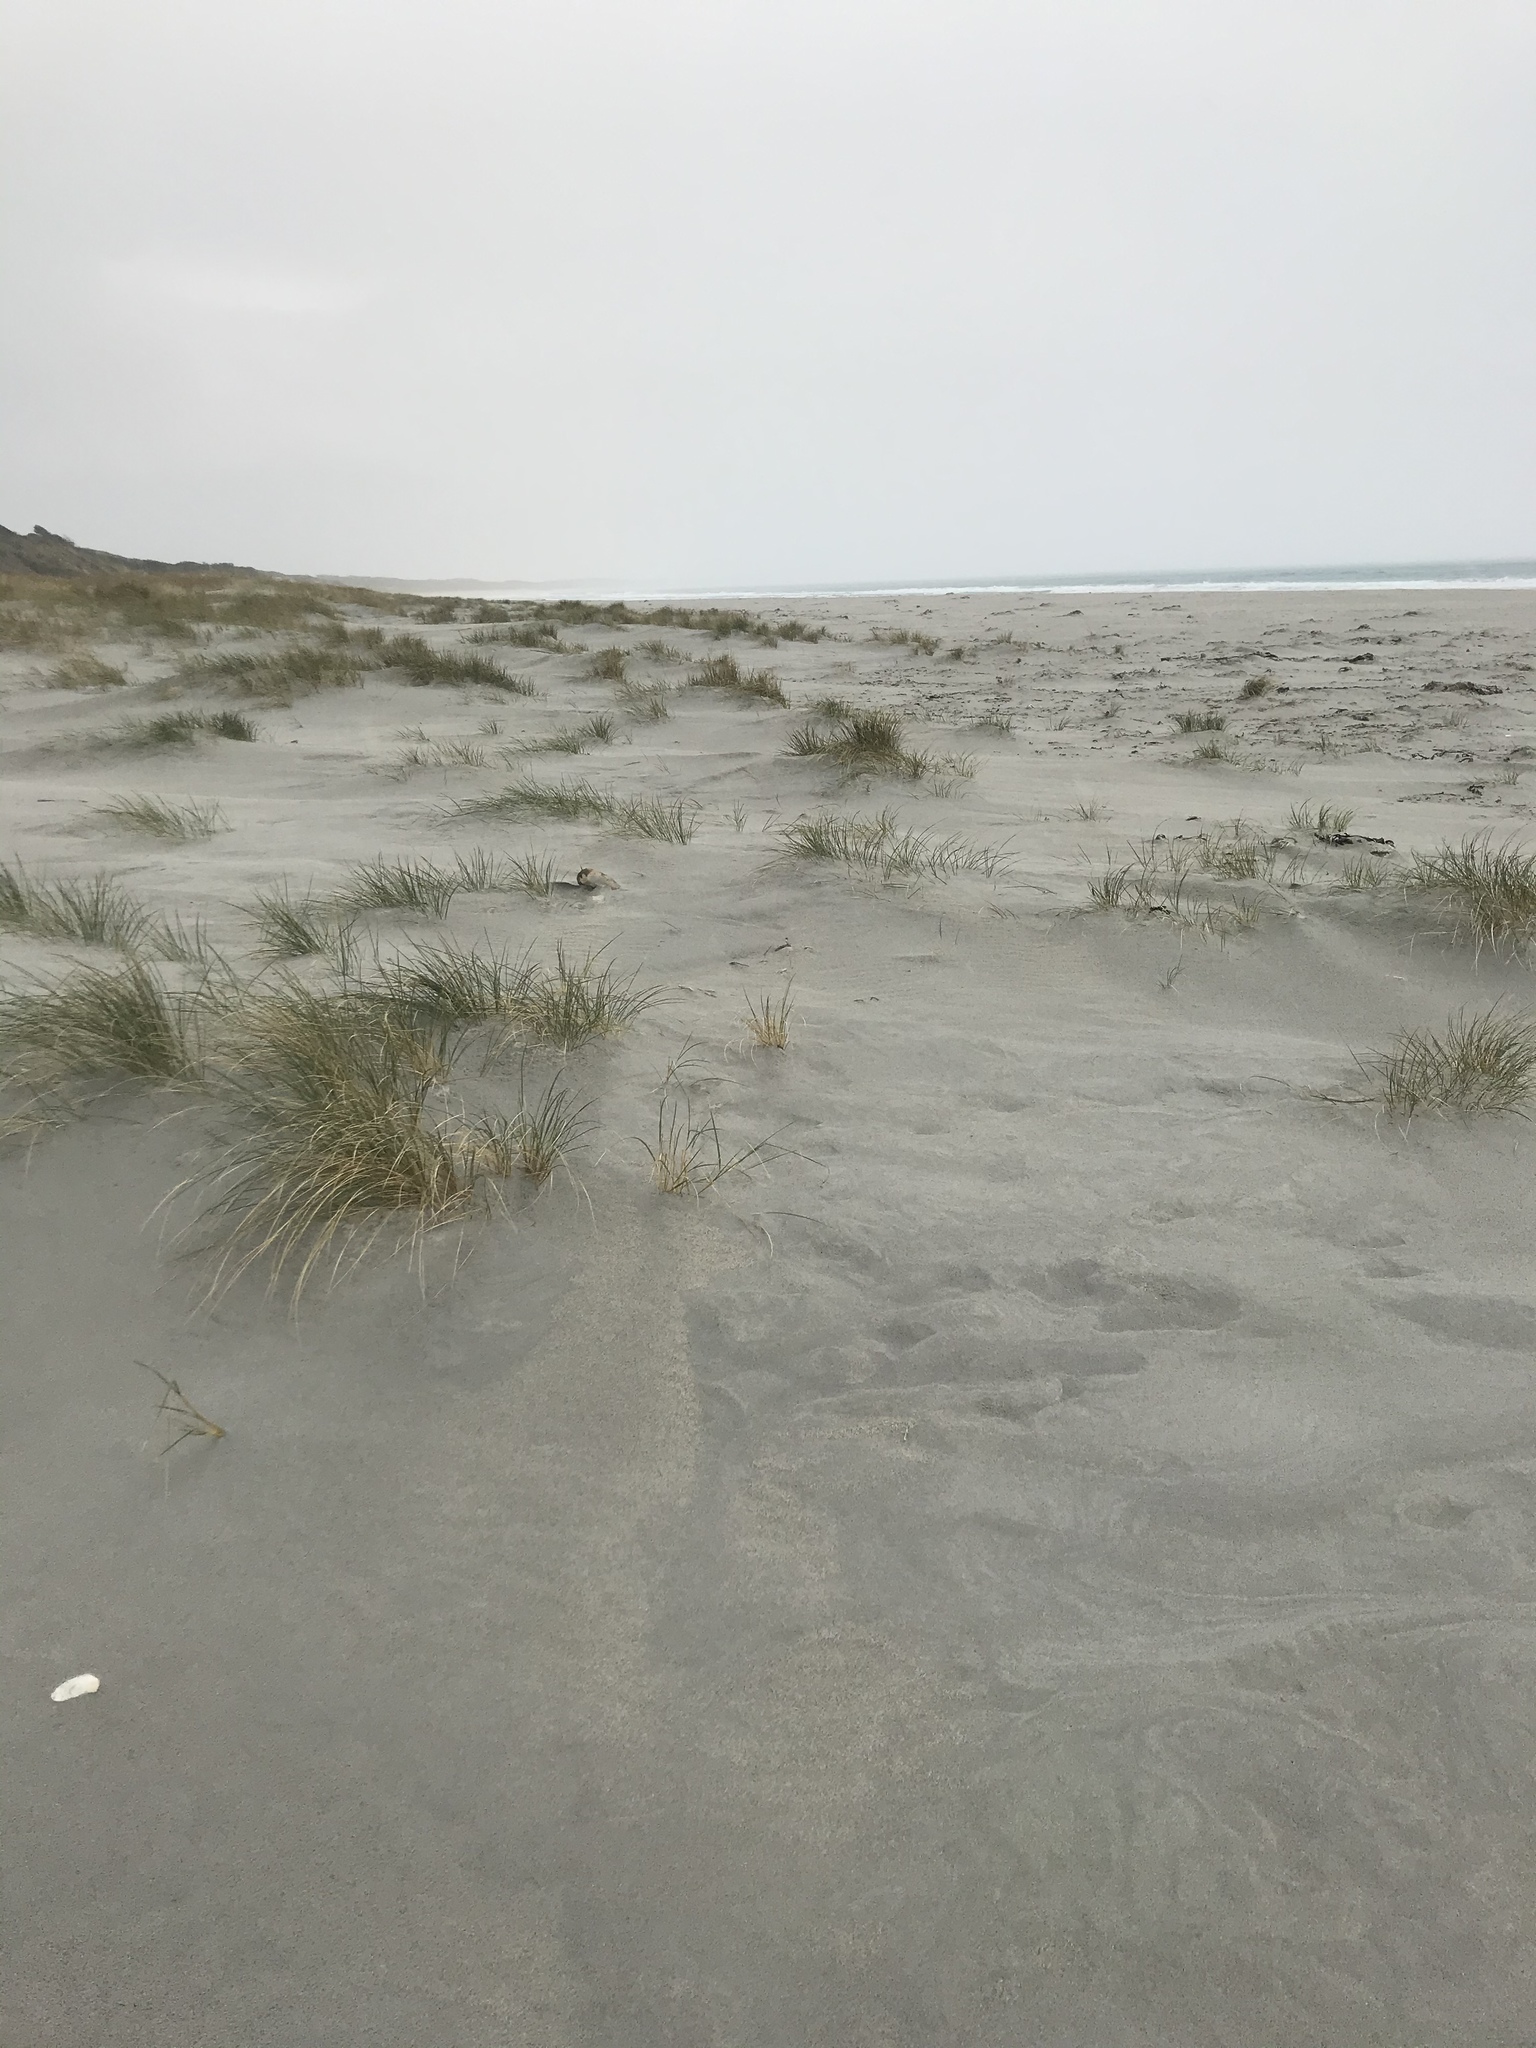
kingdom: Plantae
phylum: Tracheophyta
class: Liliopsida
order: Poales
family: Poaceae
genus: Calamagrostis
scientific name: Calamagrostis arenaria
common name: European beachgrass
